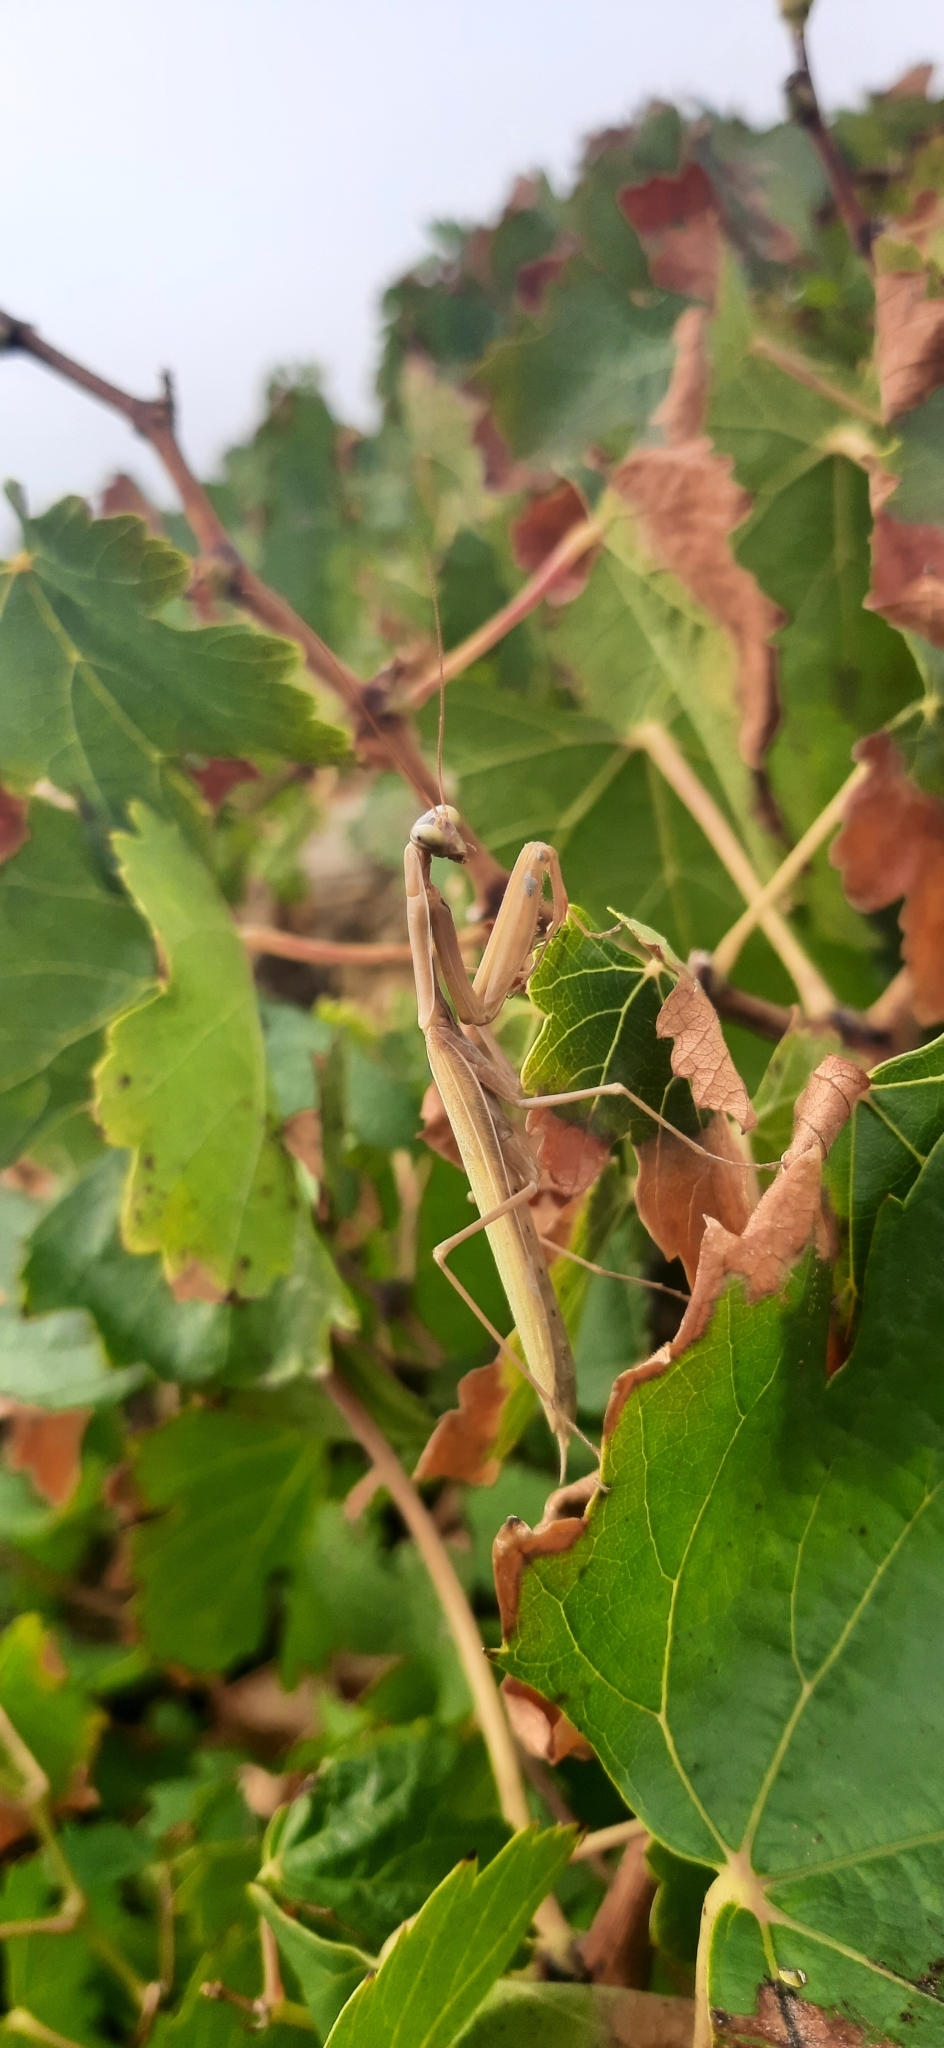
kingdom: Animalia
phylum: Arthropoda
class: Insecta
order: Mantodea
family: Mantidae
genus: Mantis
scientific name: Mantis religiosa
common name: Praying mantis
